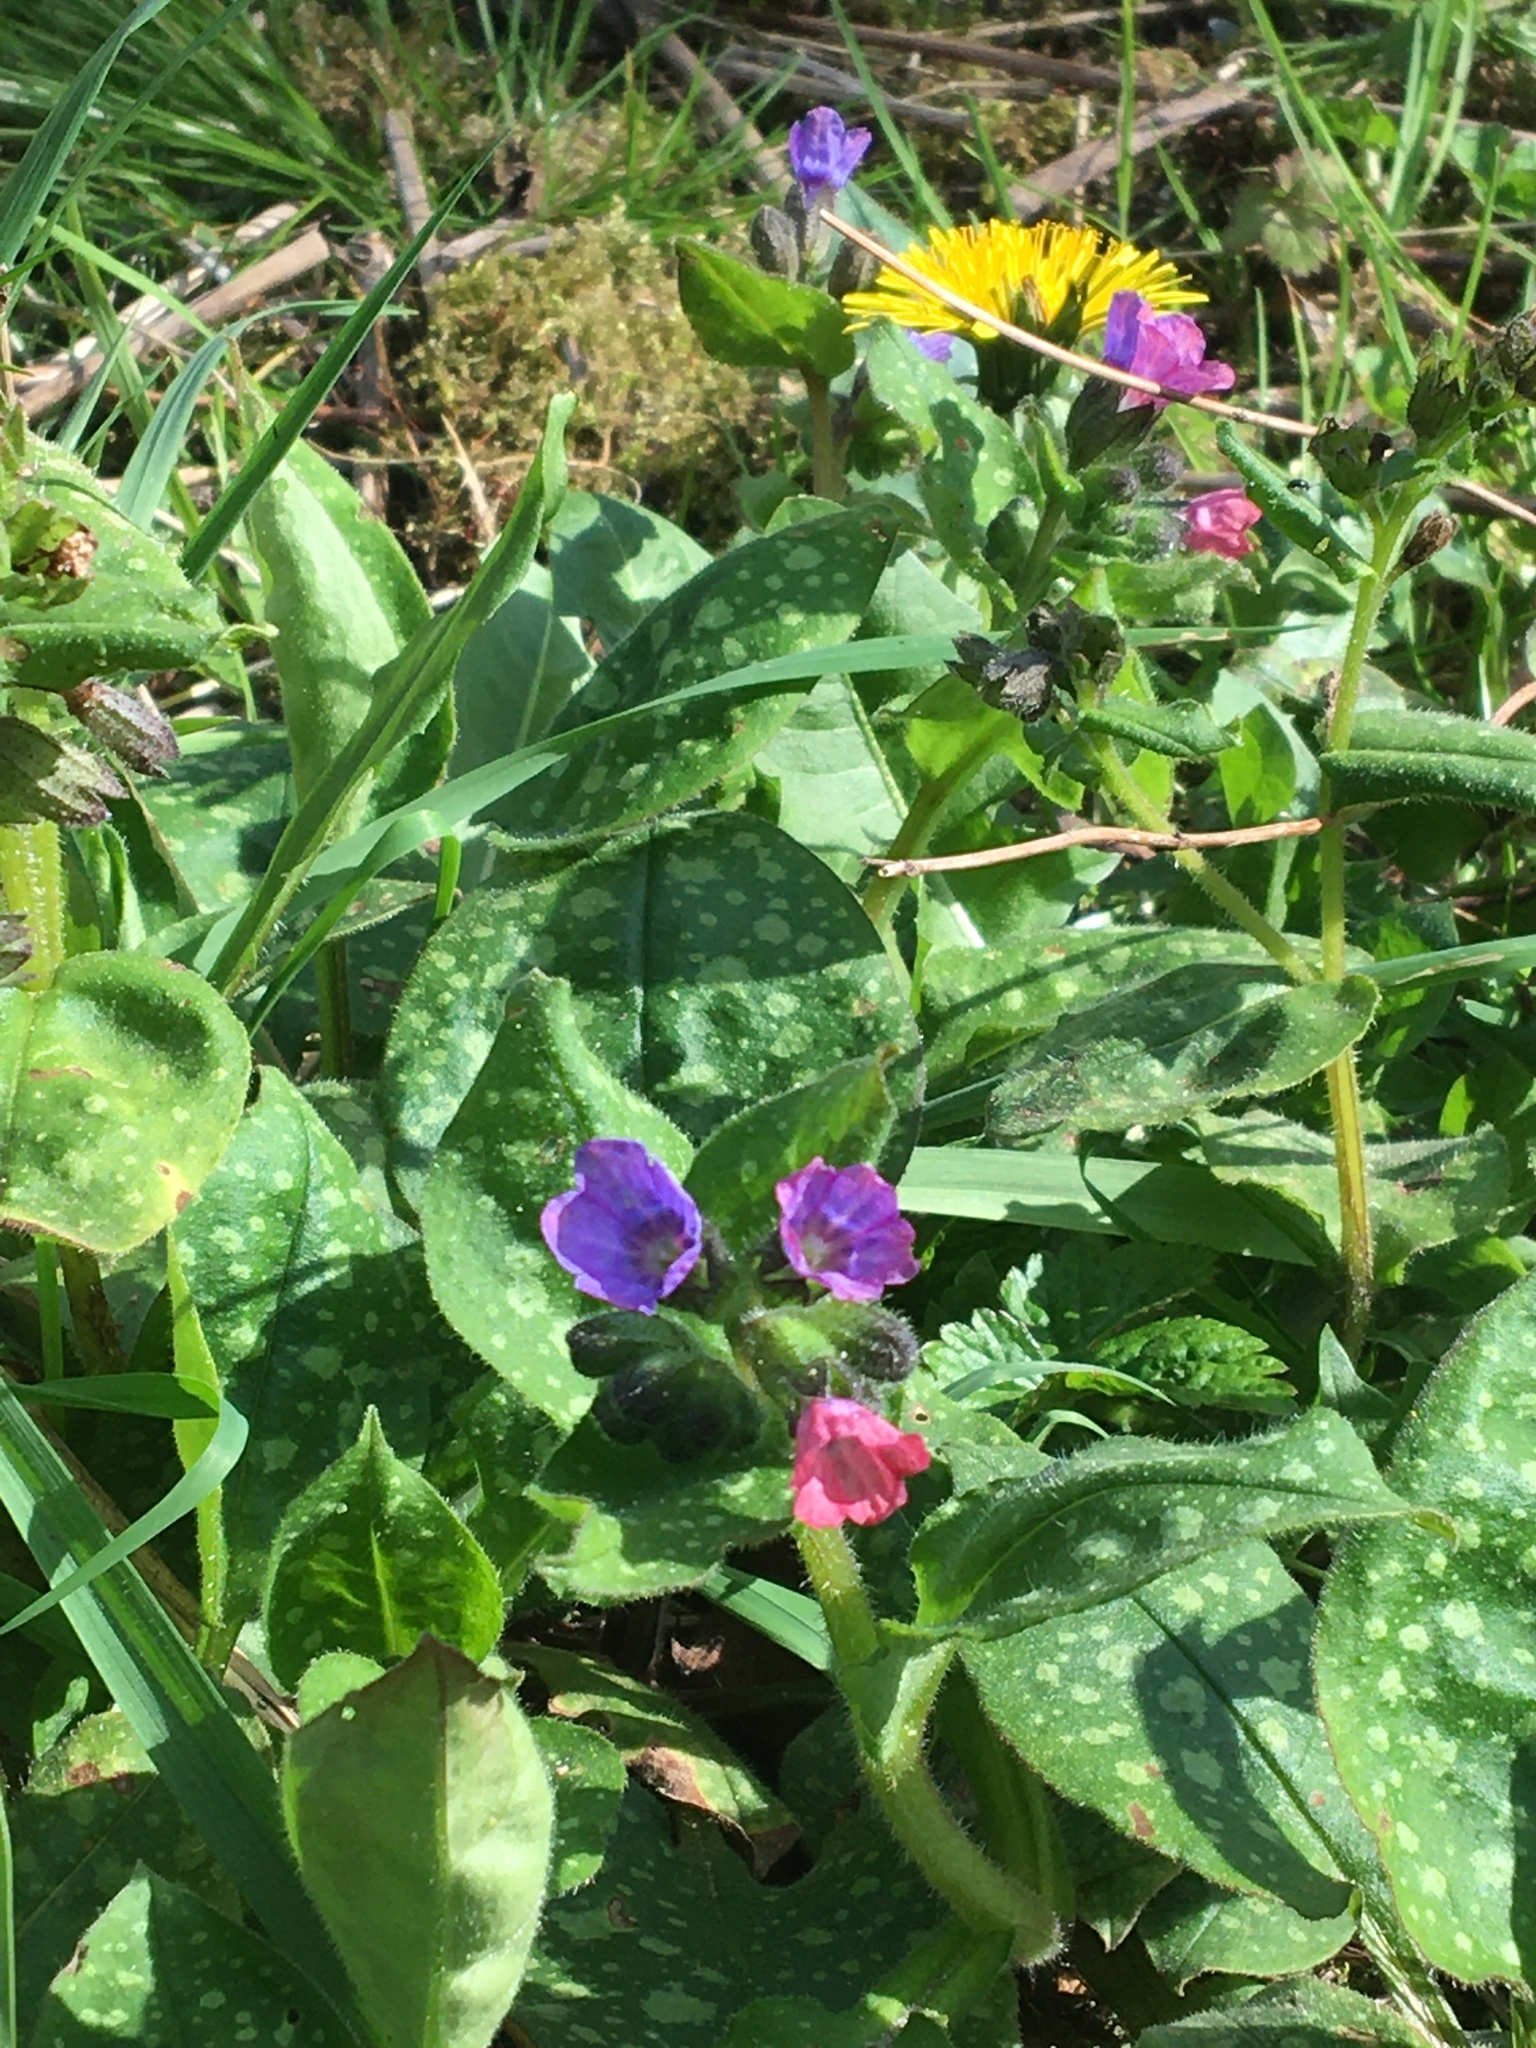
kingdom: Plantae
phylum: Tracheophyta
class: Magnoliopsida
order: Boraginales
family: Boraginaceae
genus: Pulmonaria
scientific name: Pulmonaria officinalis
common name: Lungwort
